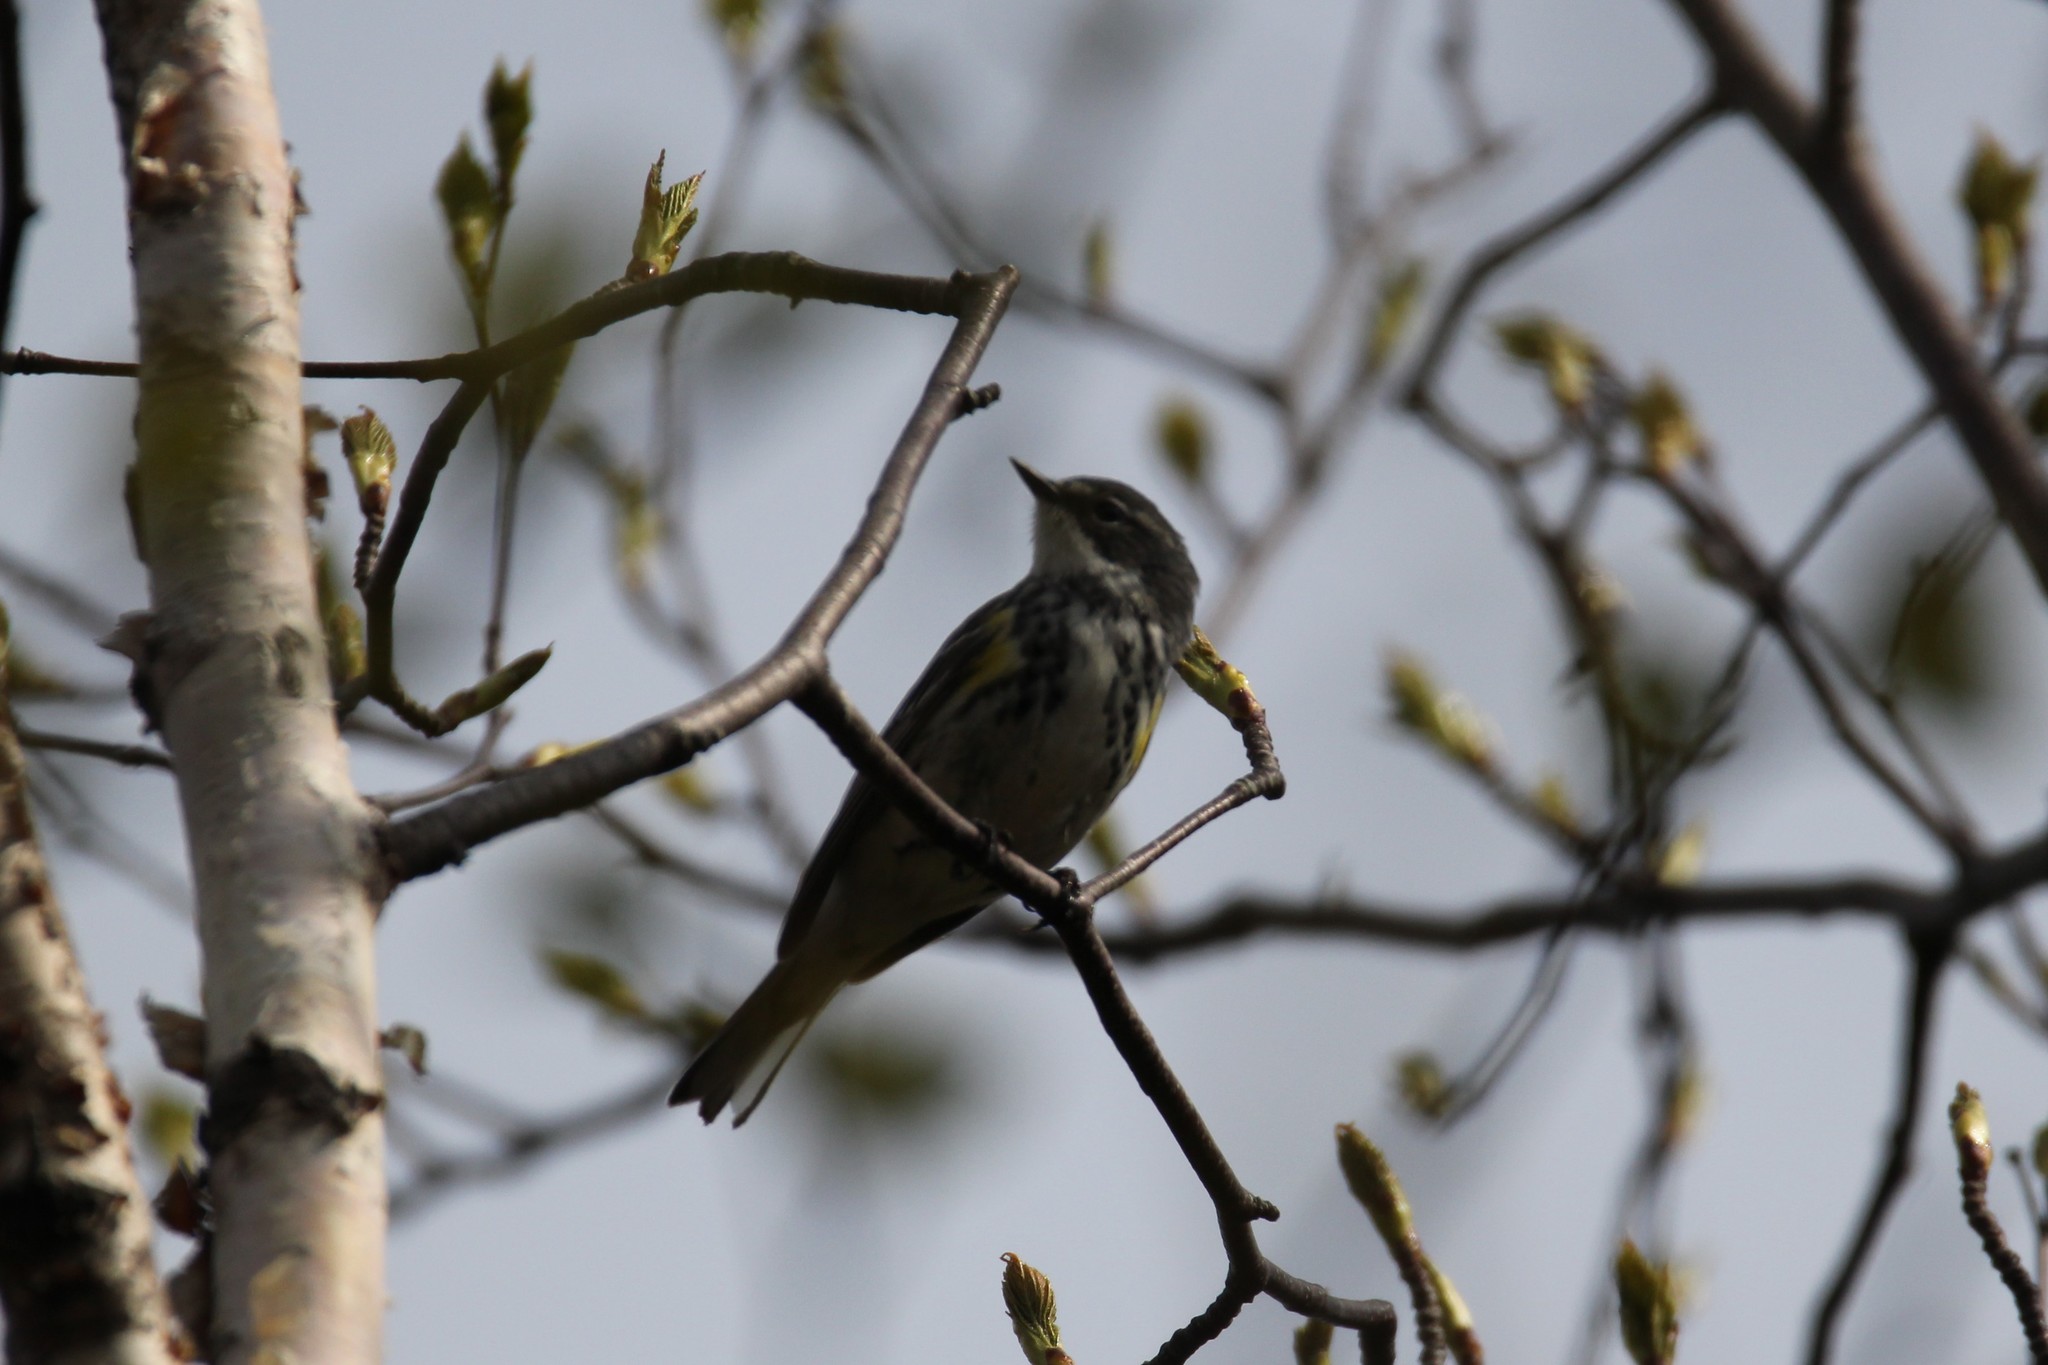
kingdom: Animalia
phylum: Chordata
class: Aves
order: Passeriformes
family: Parulidae
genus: Setophaga
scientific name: Setophaga coronata
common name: Myrtle warbler
